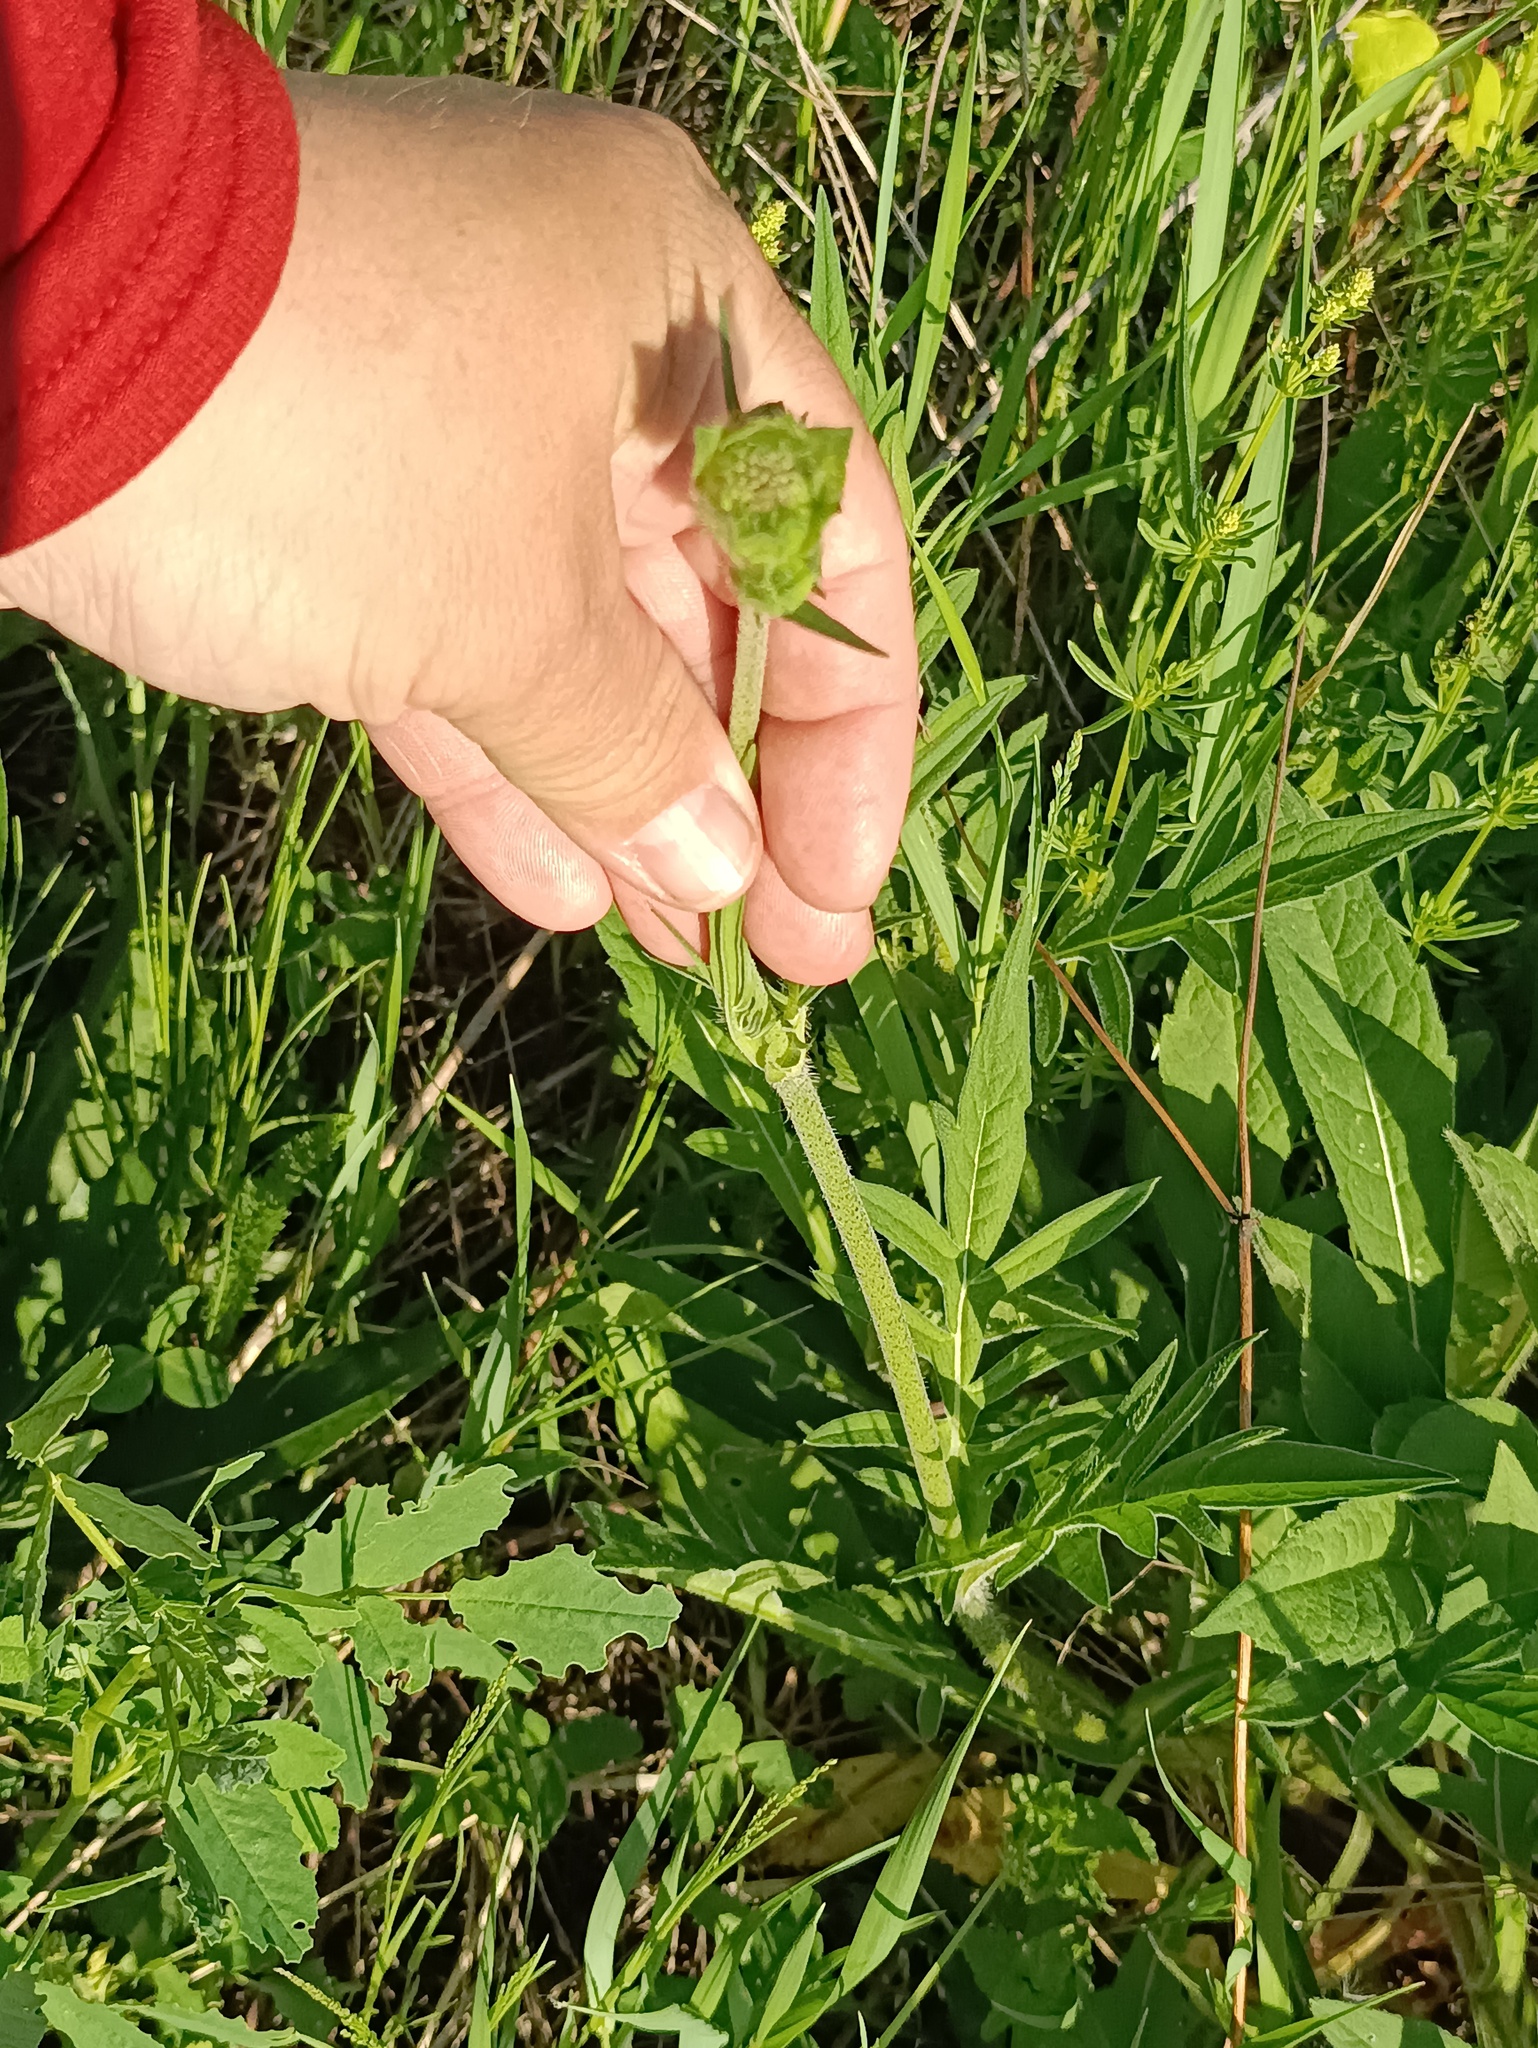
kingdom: Plantae
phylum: Tracheophyta
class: Magnoliopsida
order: Dipsacales
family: Caprifoliaceae
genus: Knautia
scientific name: Knautia arvensis
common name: Field scabiosa
